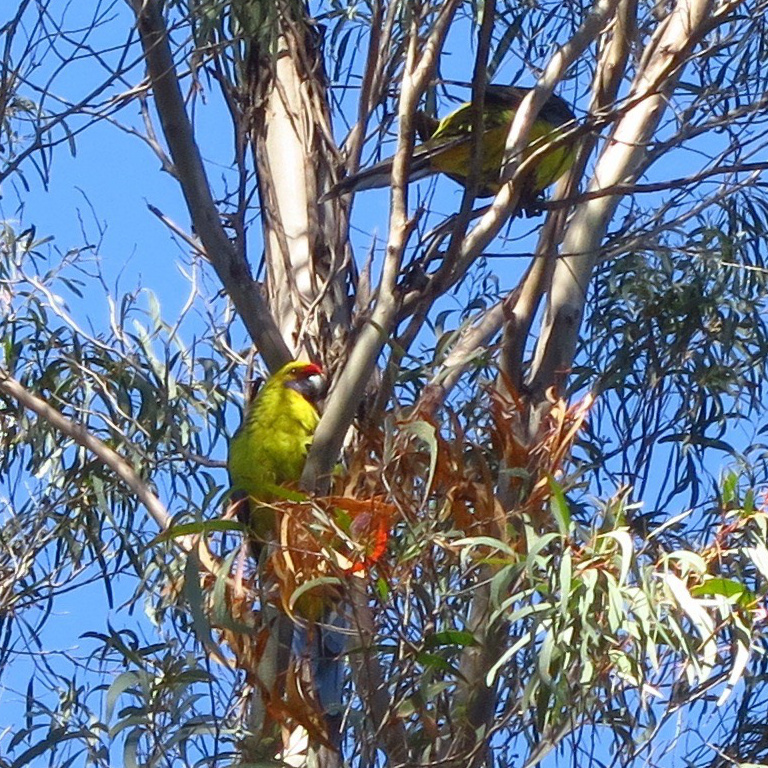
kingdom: Animalia
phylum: Chordata
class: Aves
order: Psittaciformes
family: Psittacidae
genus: Platycercus
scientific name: Platycercus caledonicus
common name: Green rosella
